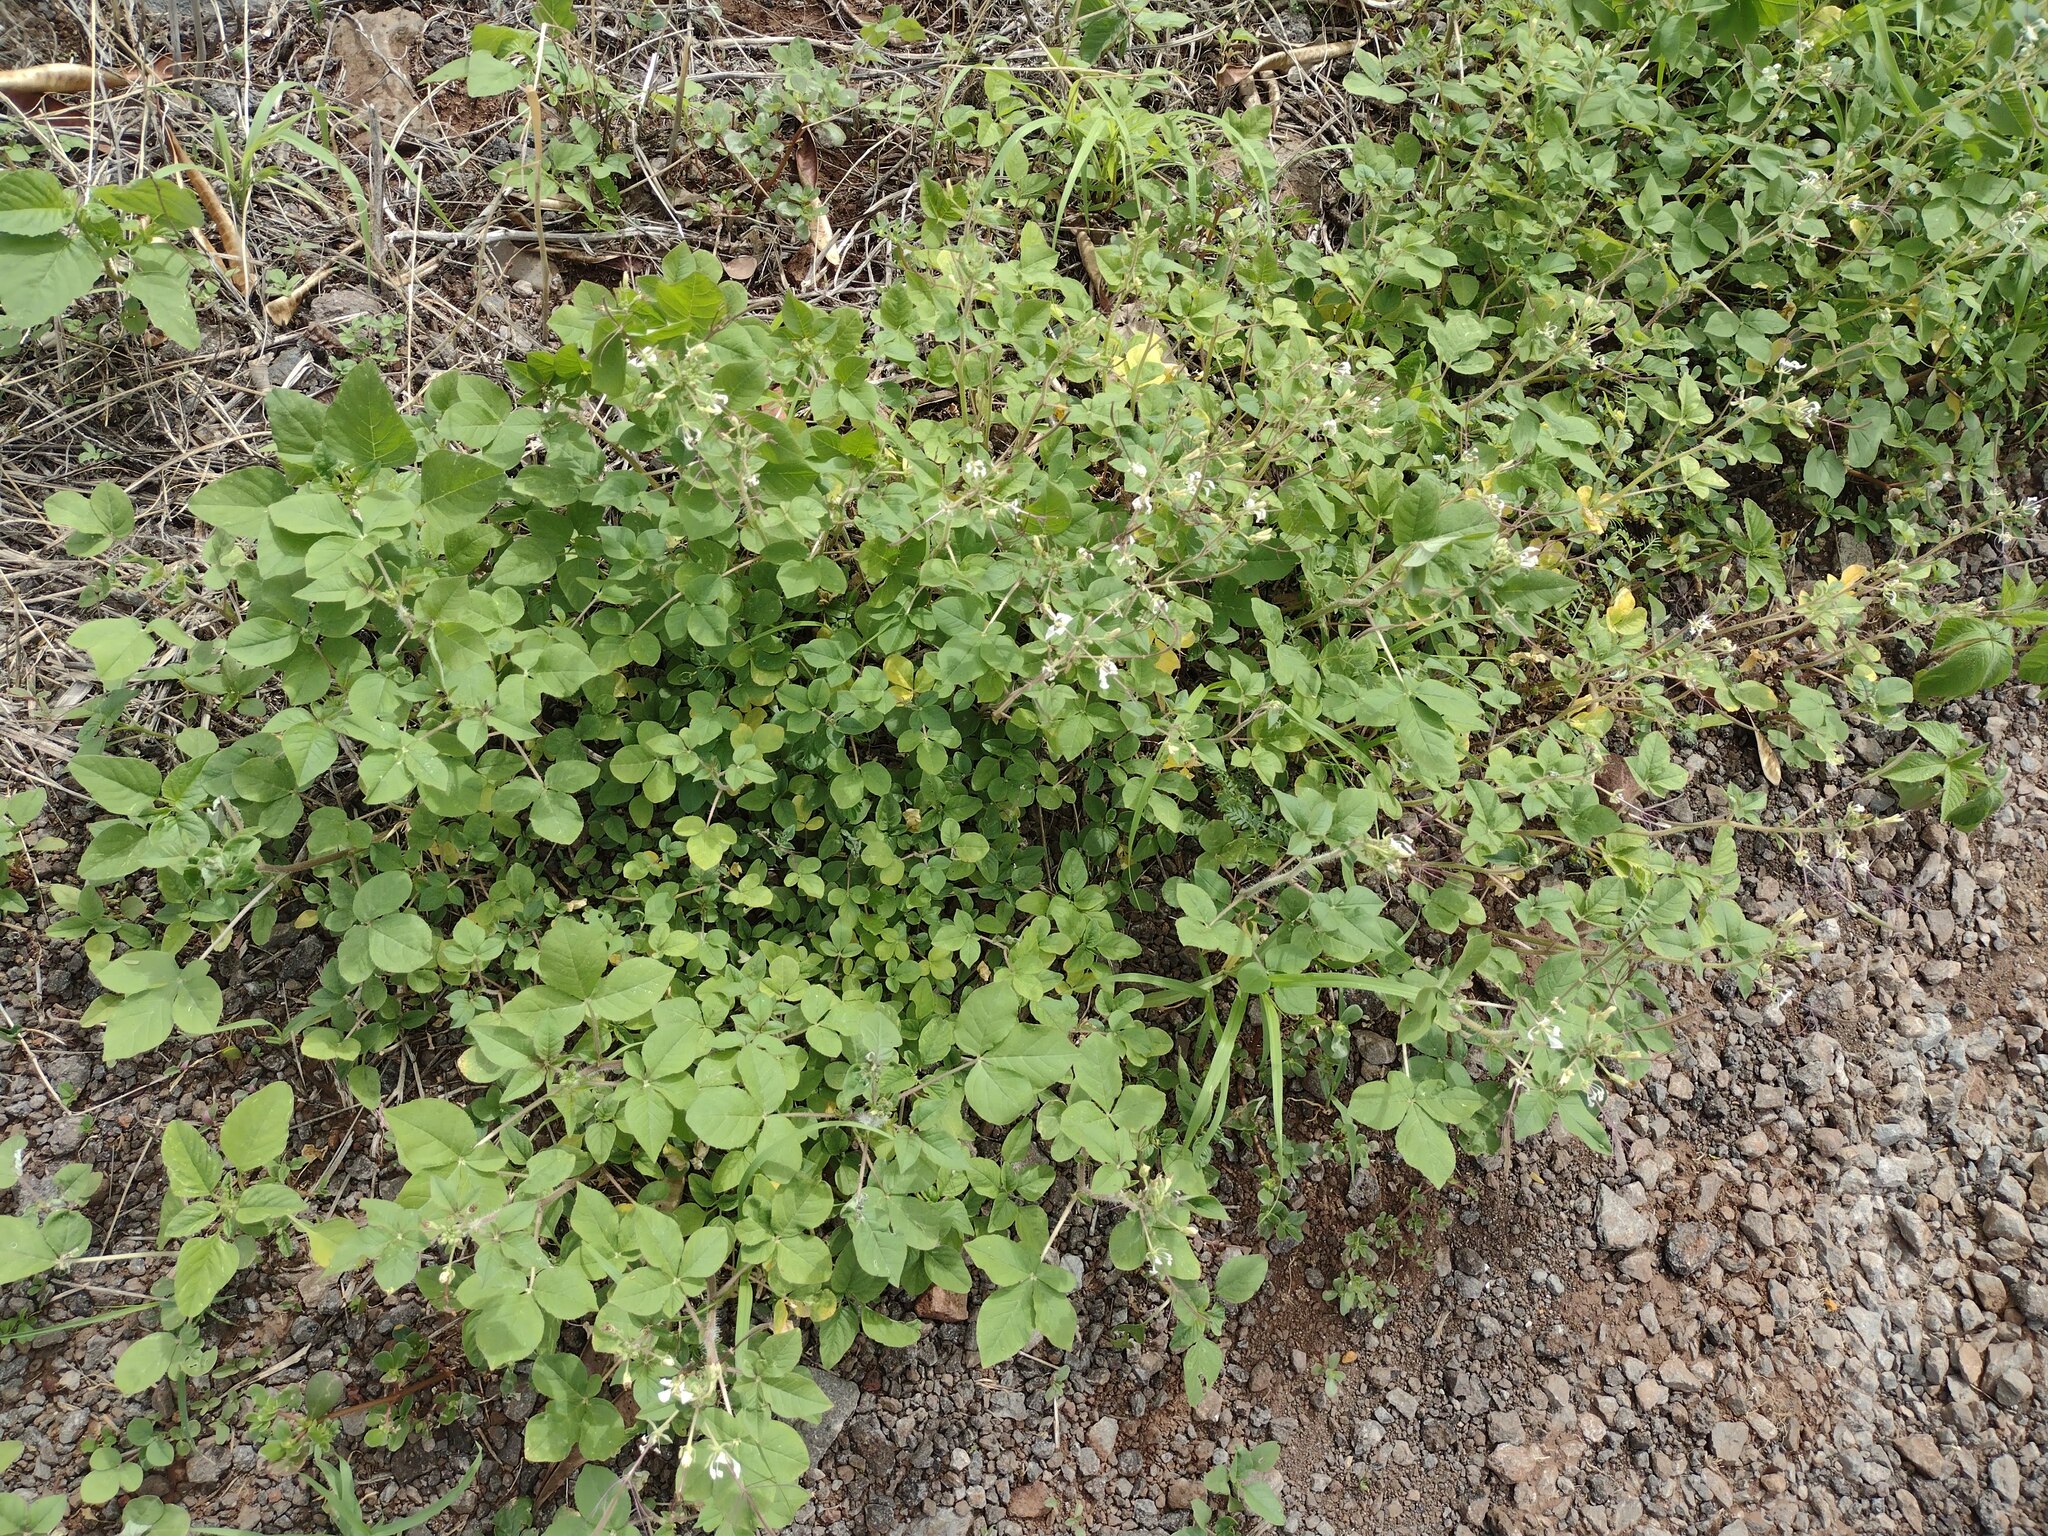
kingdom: Plantae
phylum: Tracheophyta
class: Magnoliopsida
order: Brassicales
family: Cleomaceae
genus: Gynandropsis
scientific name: Gynandropsis gynandra
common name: Spiderwisp
